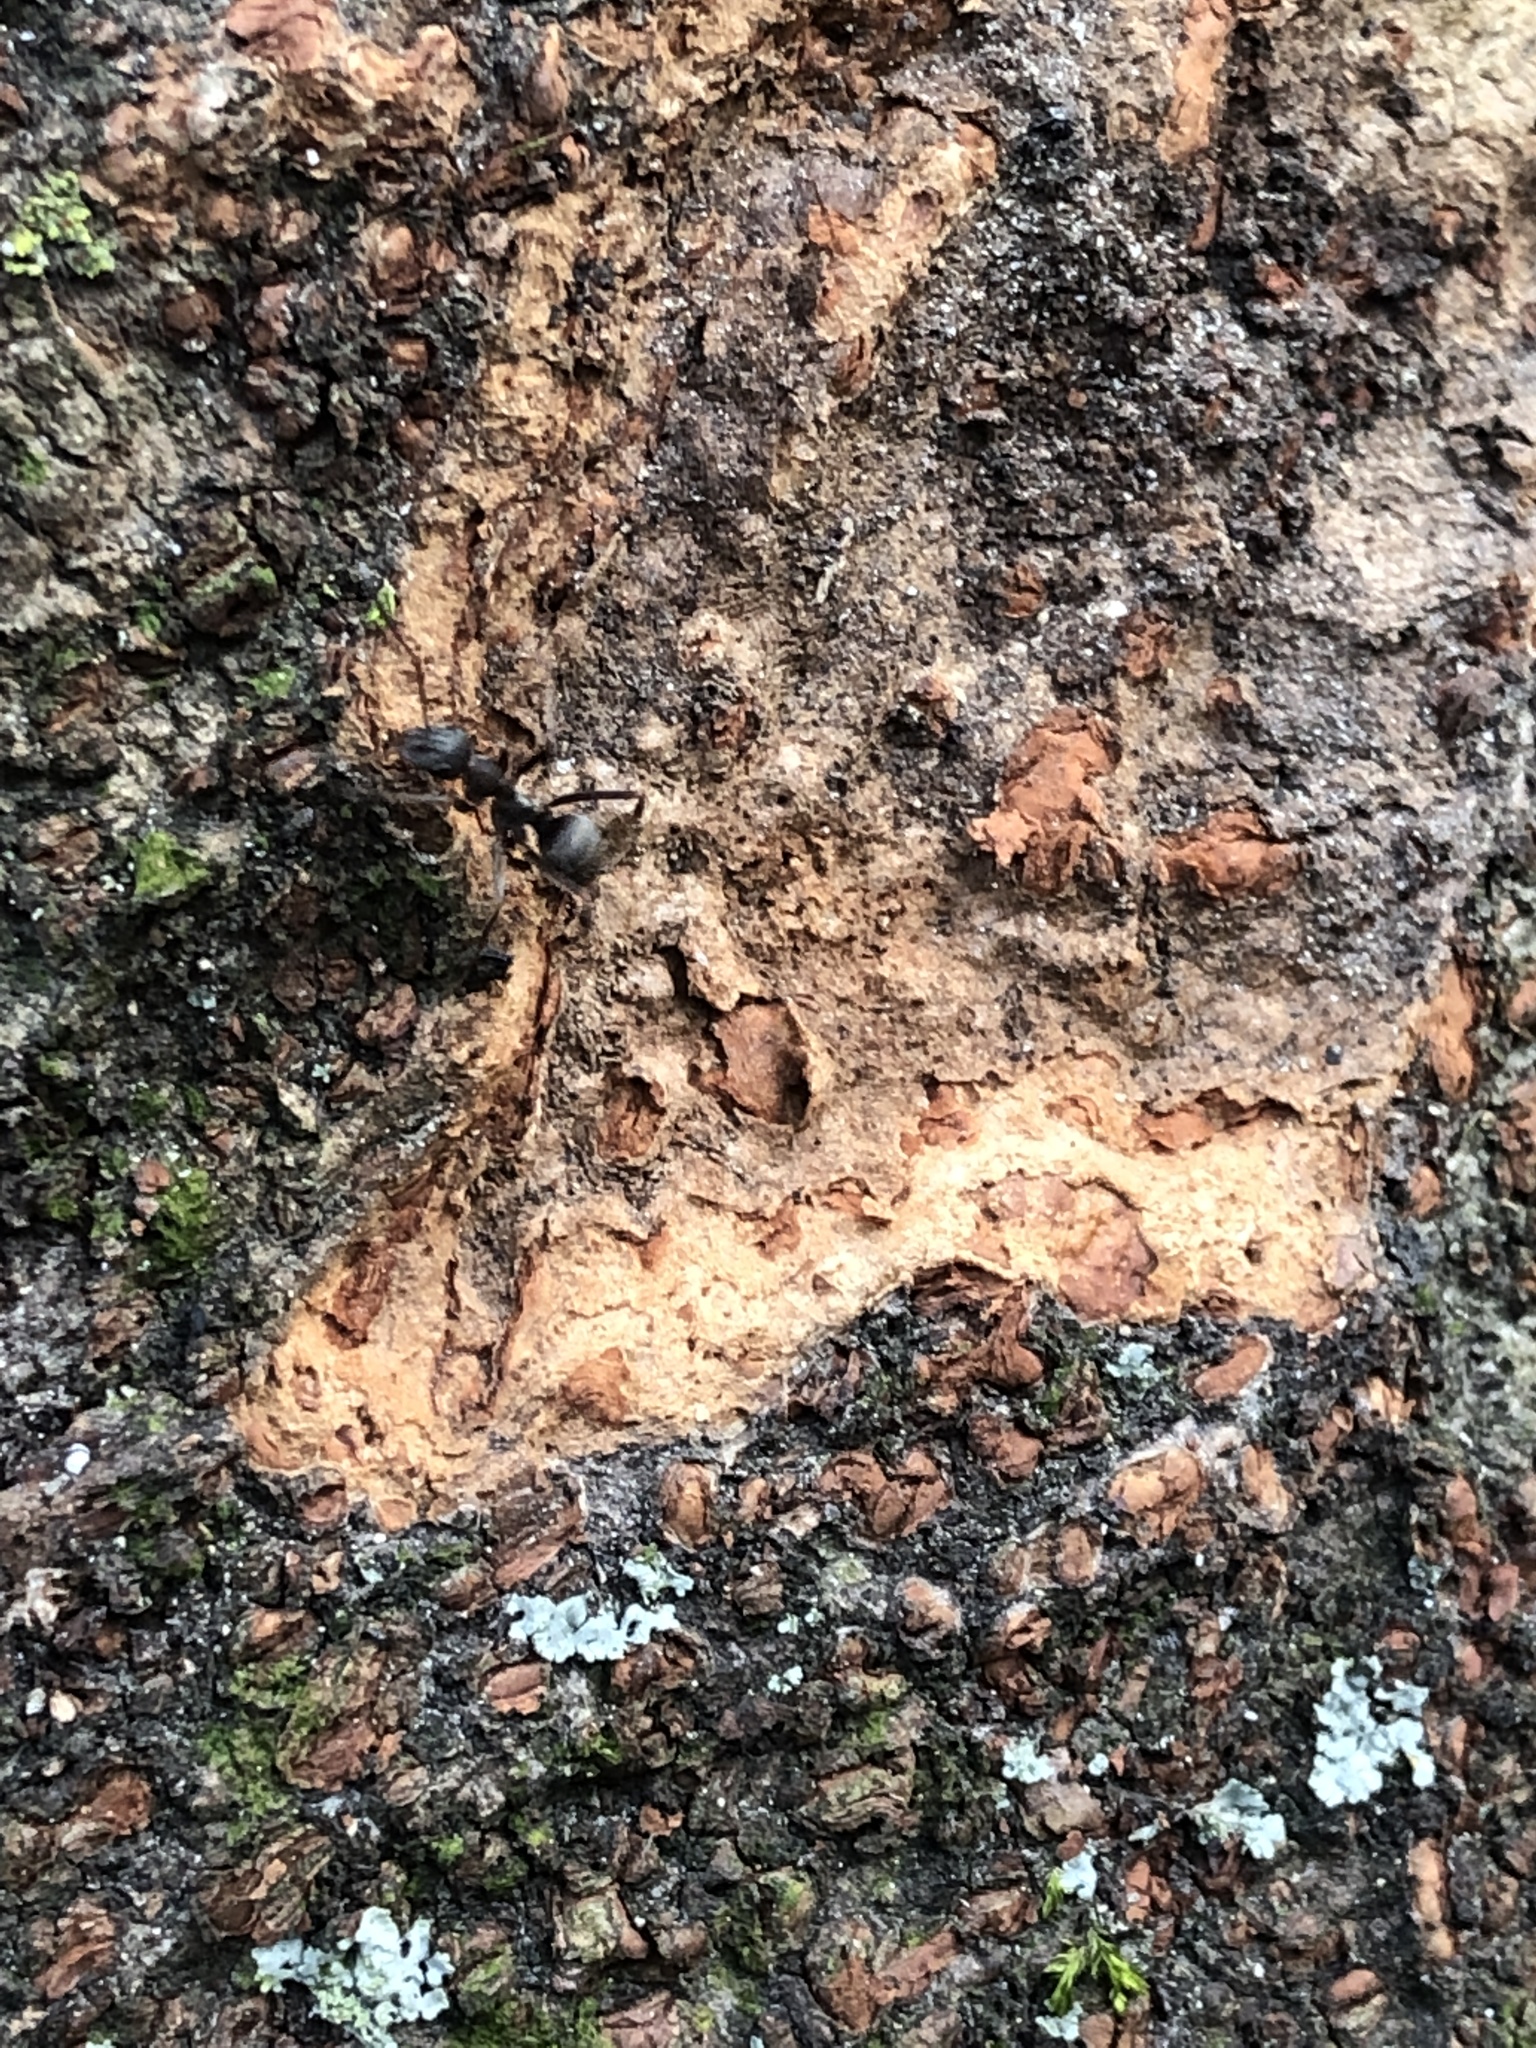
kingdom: Animalia
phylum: Arthropoda
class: Insecta
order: Hymenoptera
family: Formicidae
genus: Formica
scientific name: Formica japonica
